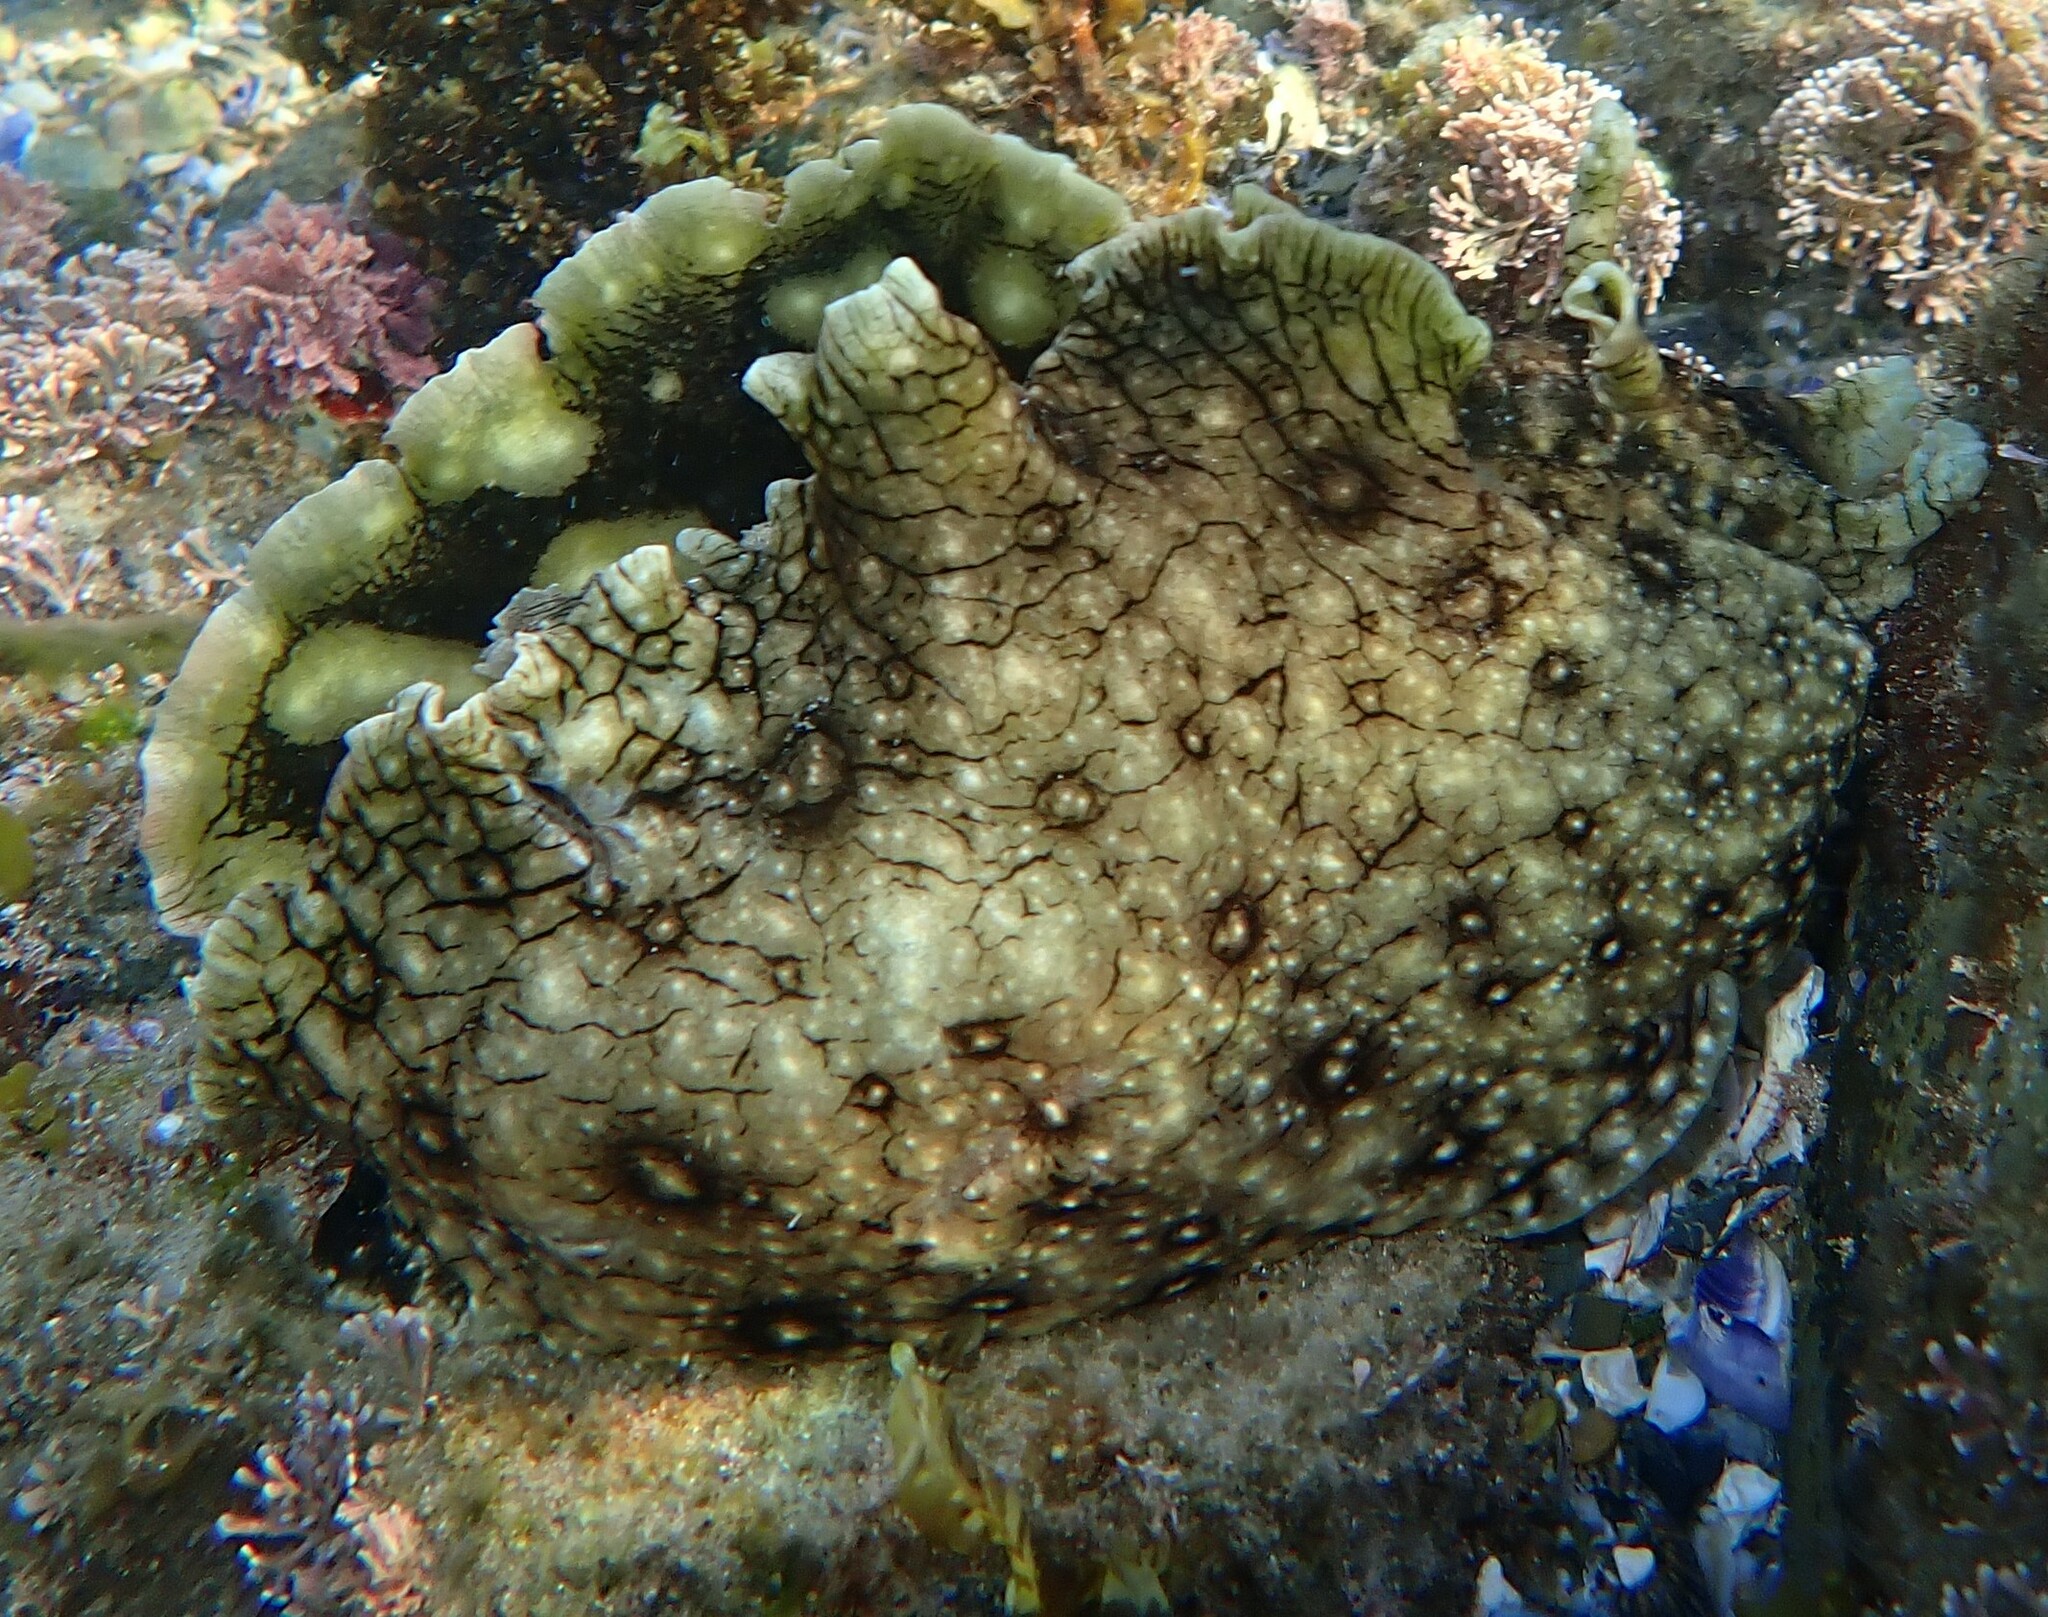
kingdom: Animalia
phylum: Mollusca
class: Gastropoda
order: Aplysiida
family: Aplysiidae
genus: Aplysia
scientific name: Aplysia argus
